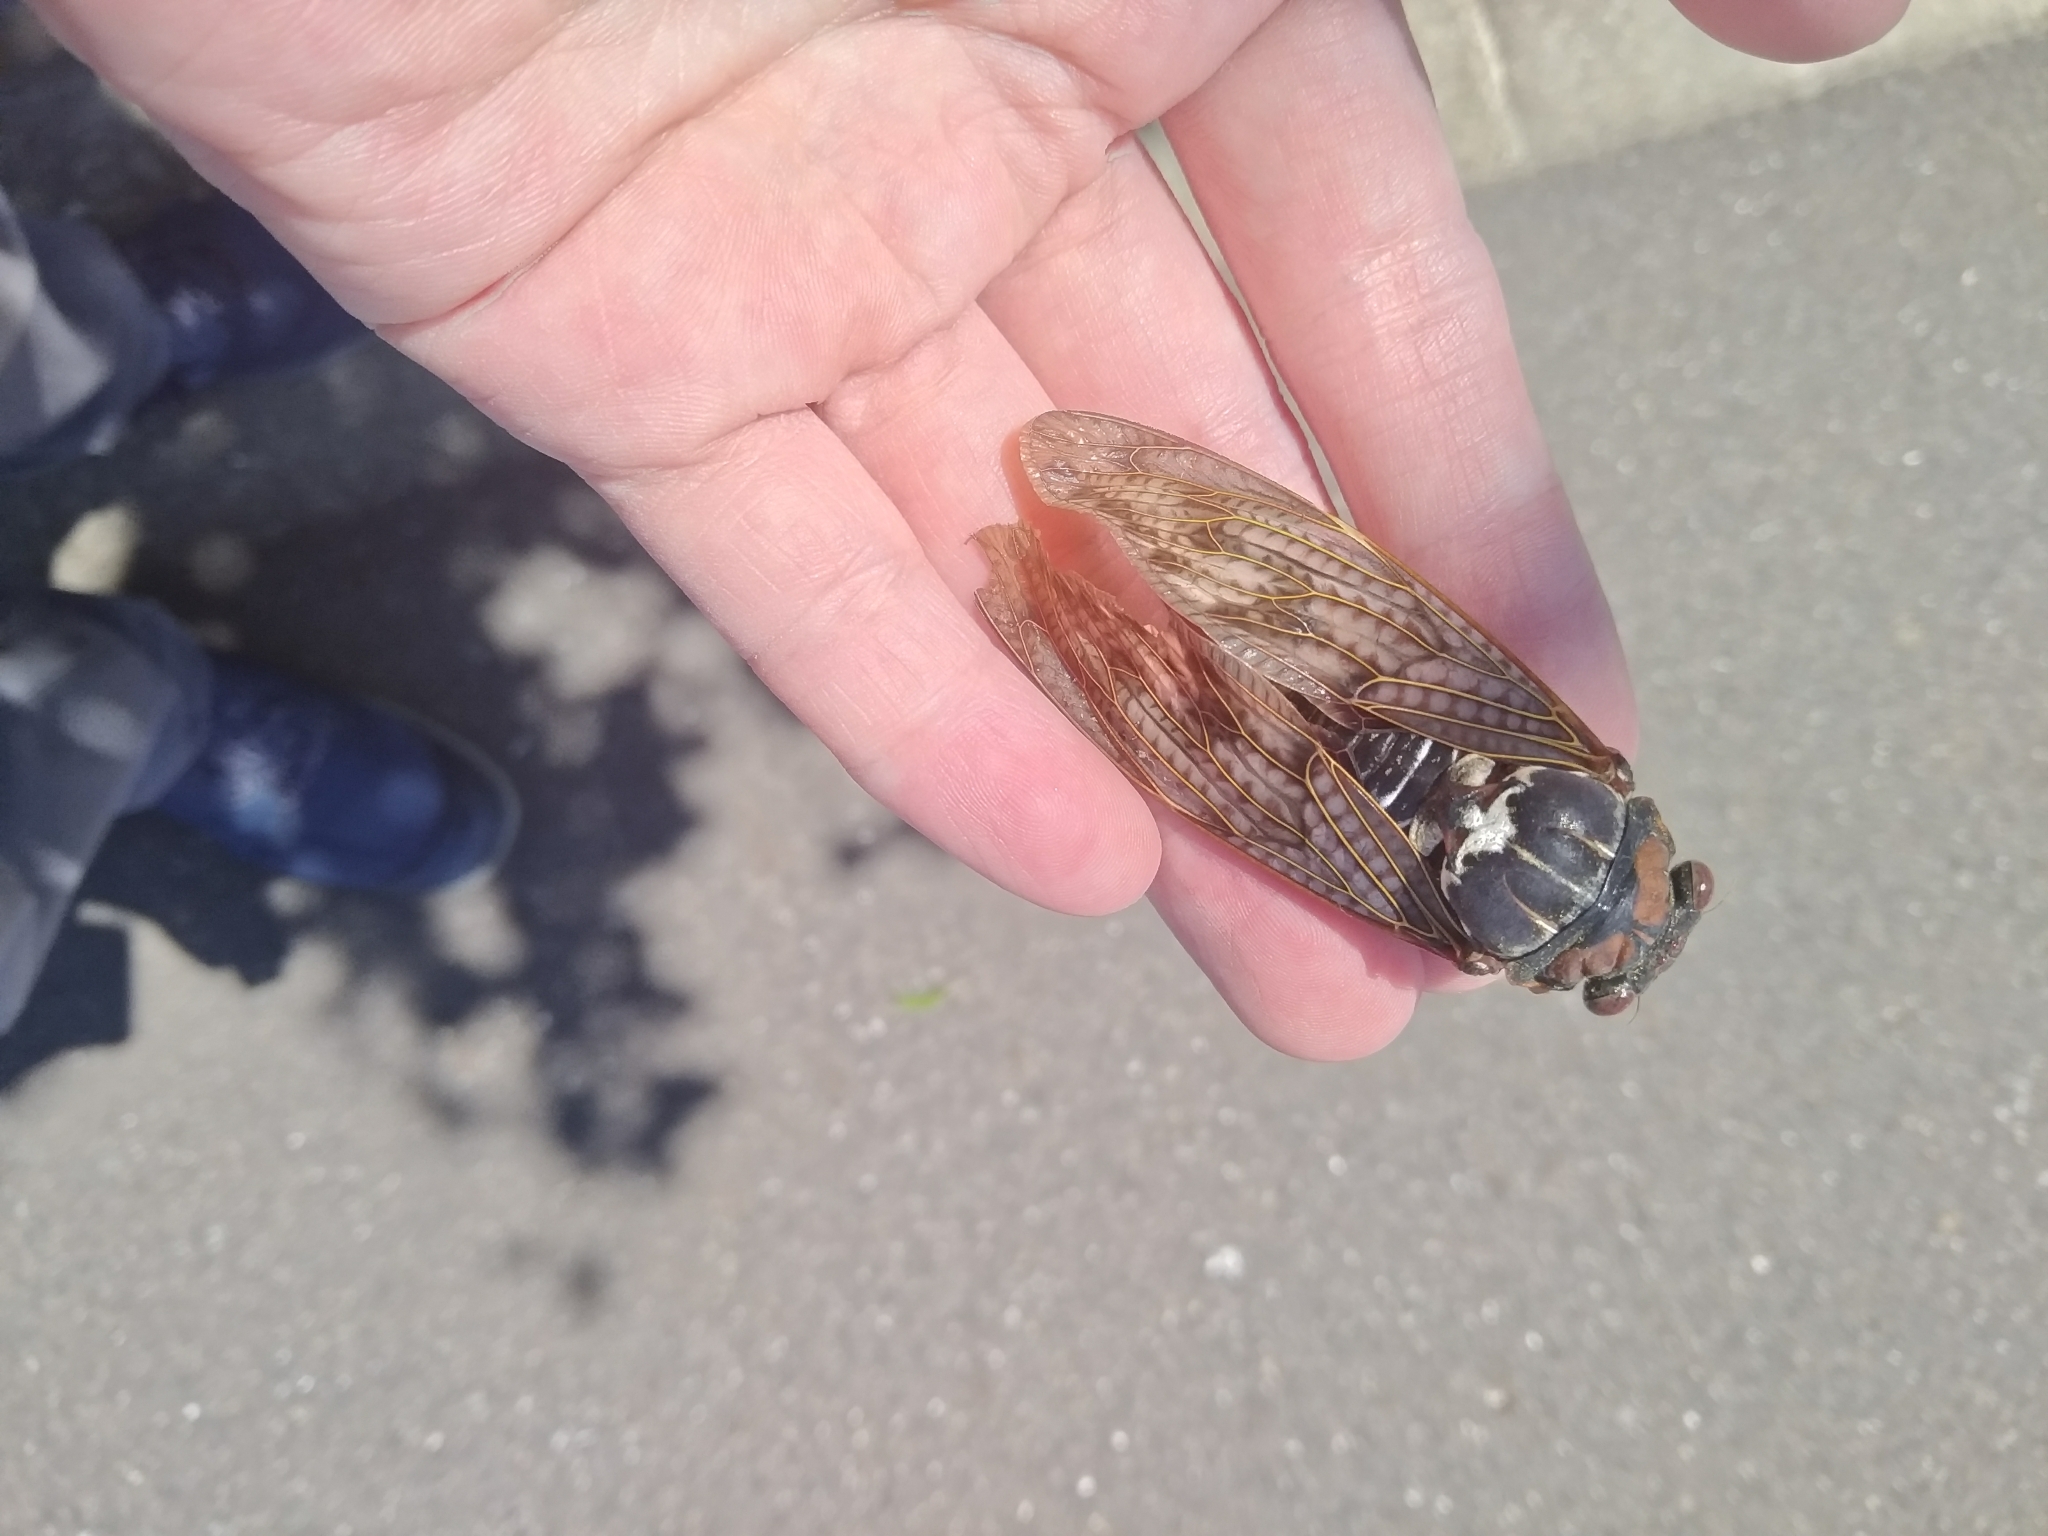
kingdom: Animalia
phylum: Arthropoda
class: Insecta
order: Hemiptera
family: Cicadidae
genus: Graptopsaltria
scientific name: Graptopsaltria nigrofuscata
